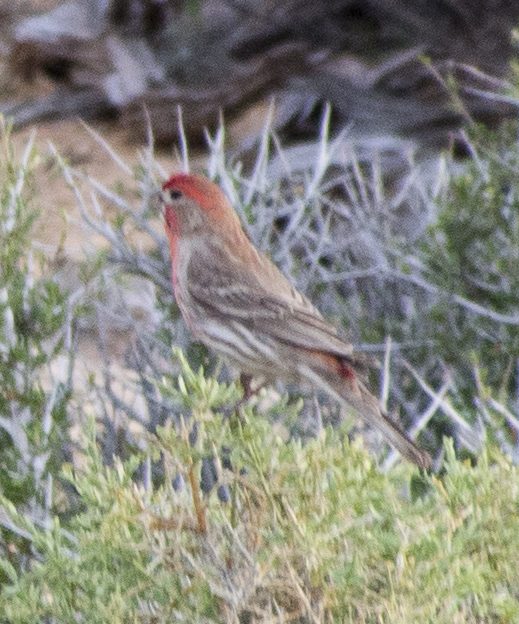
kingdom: Animalia
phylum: Chordata
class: Aves
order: Passeriformes
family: Fringillidae
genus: Haemorhous
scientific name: Haemorhous mexicanus
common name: House finch
